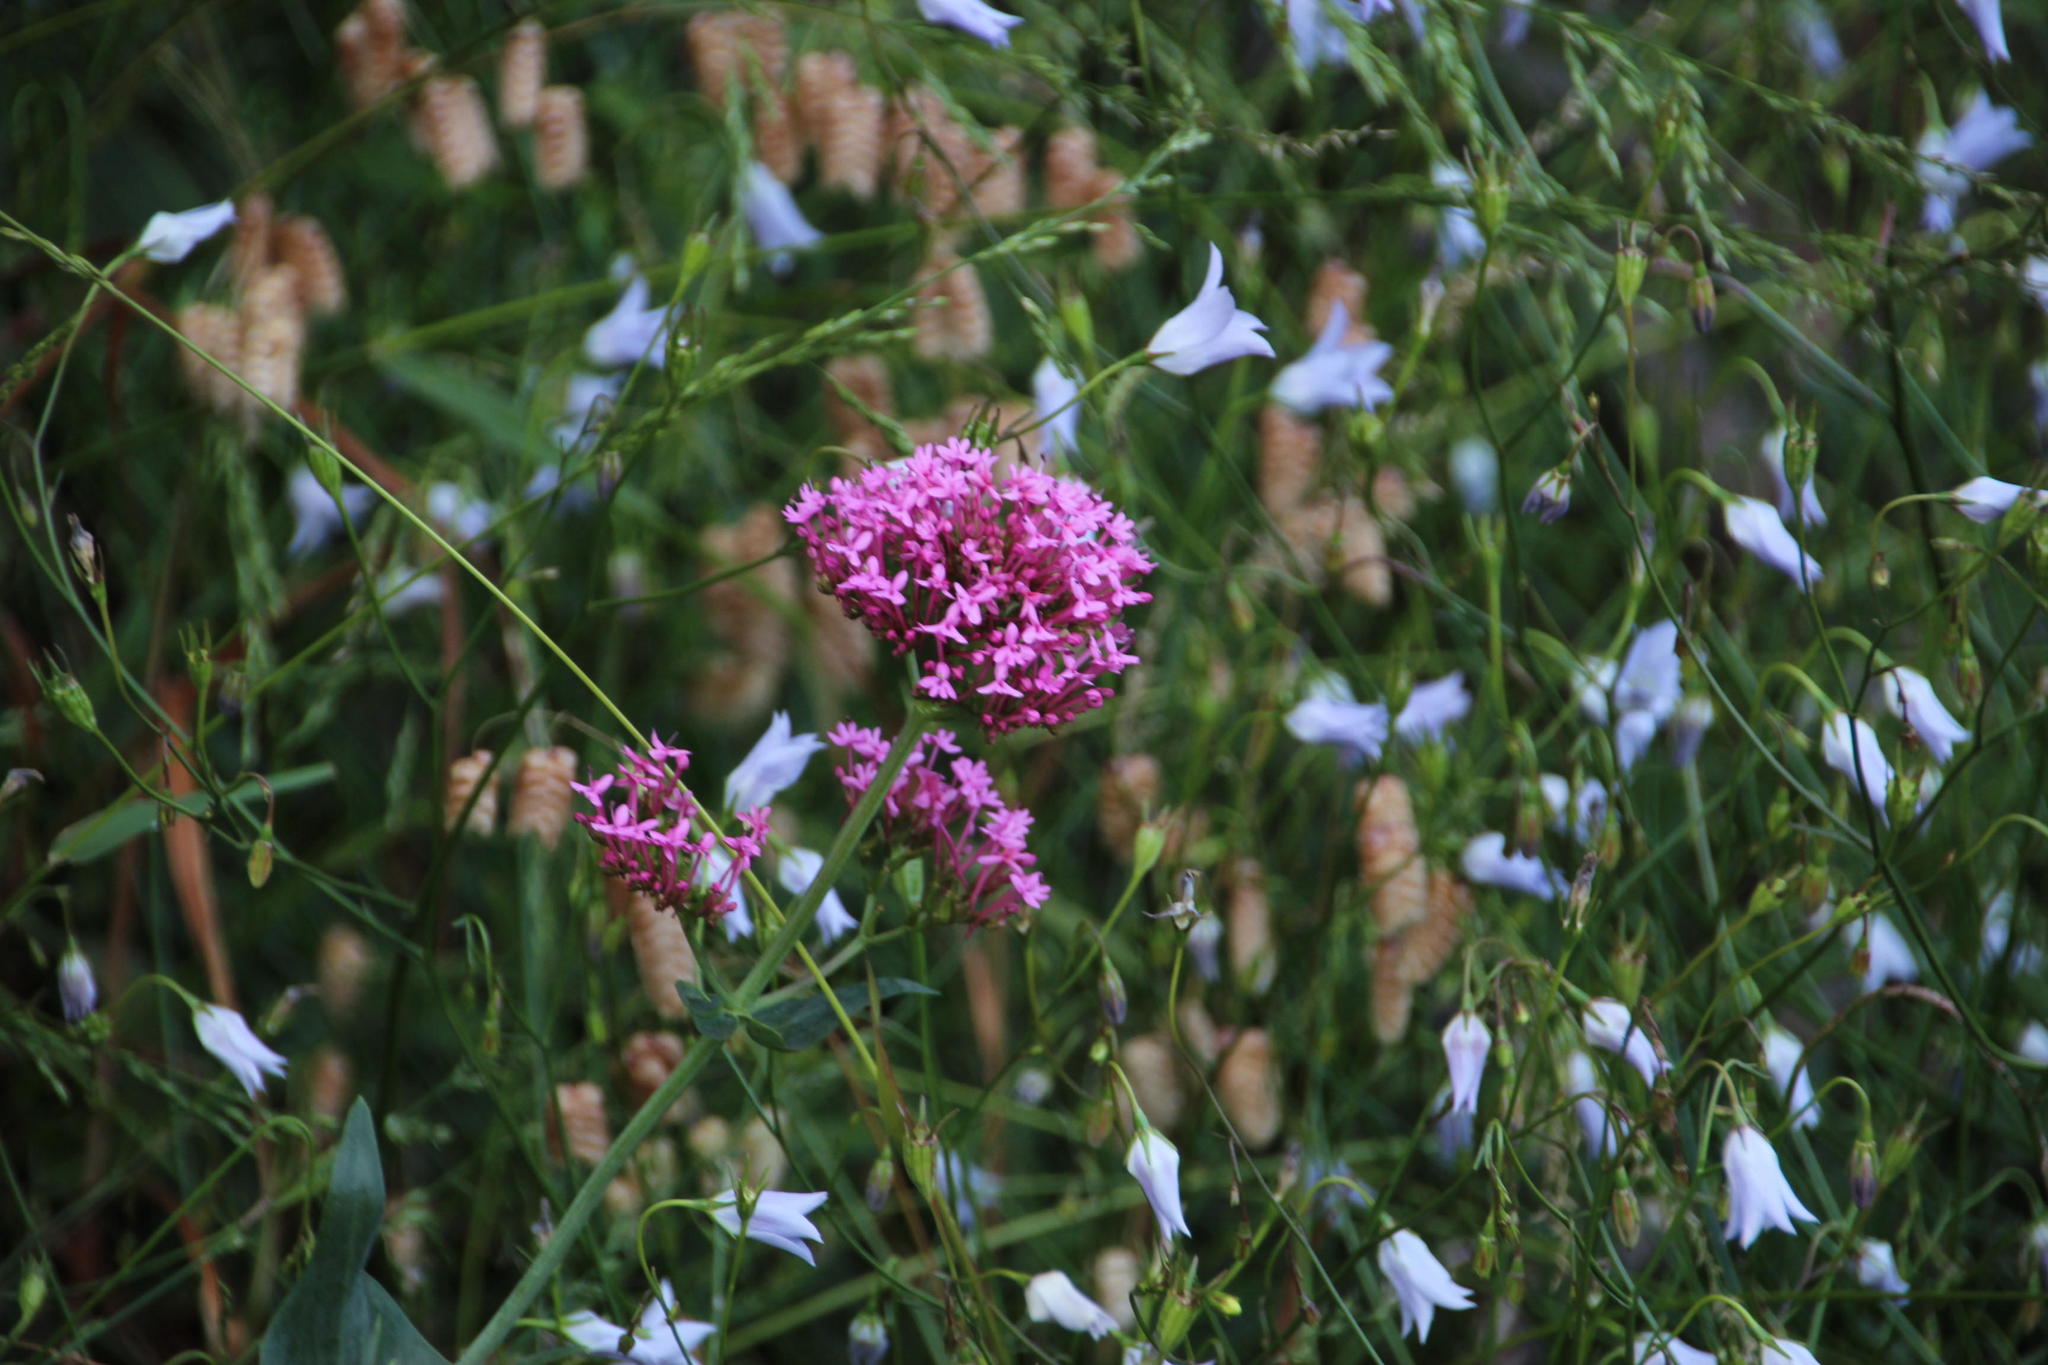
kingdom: Plantae
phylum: Tracheophyta
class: Magnoliopsida
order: Dipsacales
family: Caprifoliaceae
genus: Centranthus
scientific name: Centranthus ruber
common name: Red valerian
